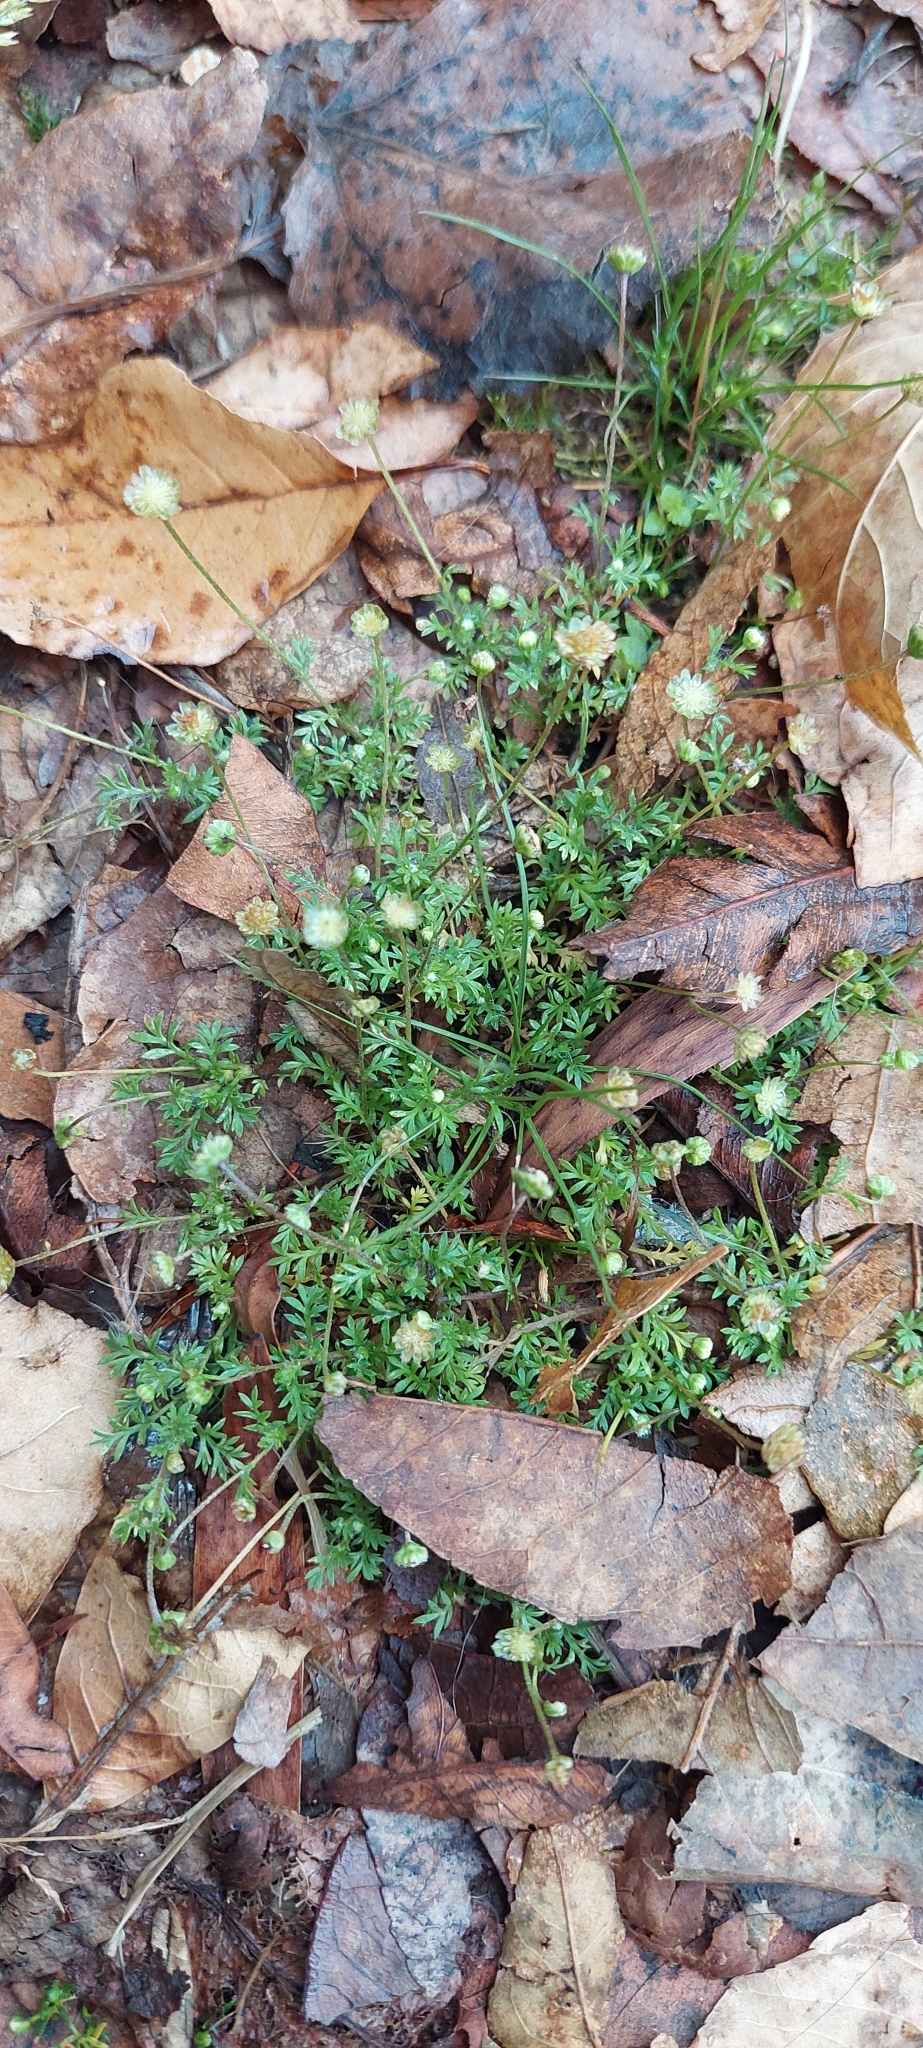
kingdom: Plantae
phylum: Tracheophyta
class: Magnoliopsida
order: Asterales
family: Asteraceae
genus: Cotula
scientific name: Cotula australis
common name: Australian waterbuttons
